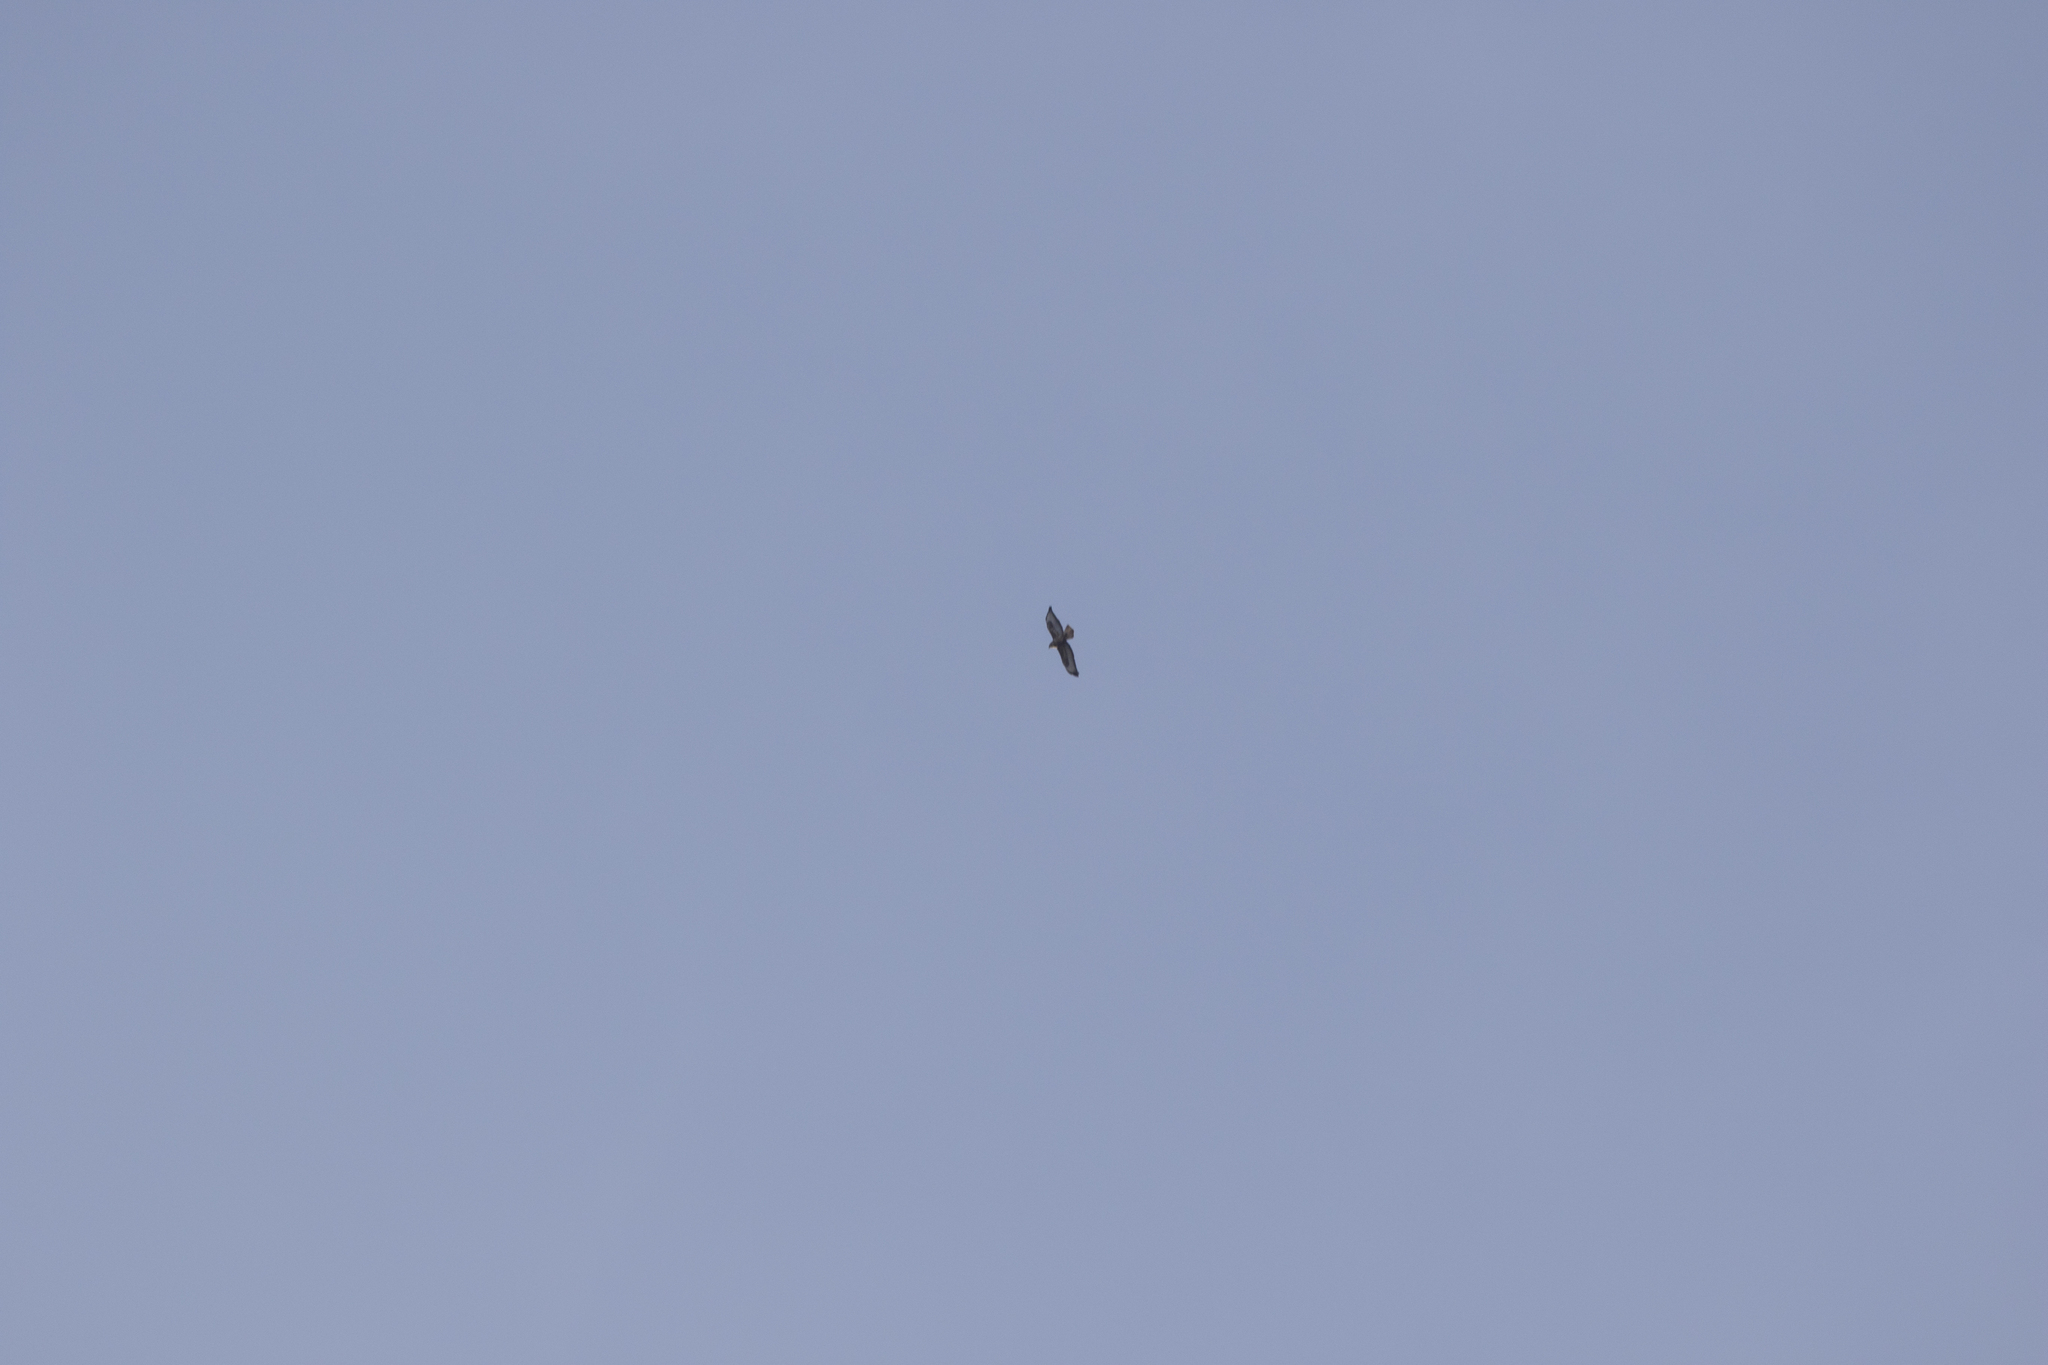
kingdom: Animalia
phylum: Chordata
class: Aves
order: Accipitriformes
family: Accipitridae
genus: Buteo
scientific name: Buteo buteo
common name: Common buzzard
